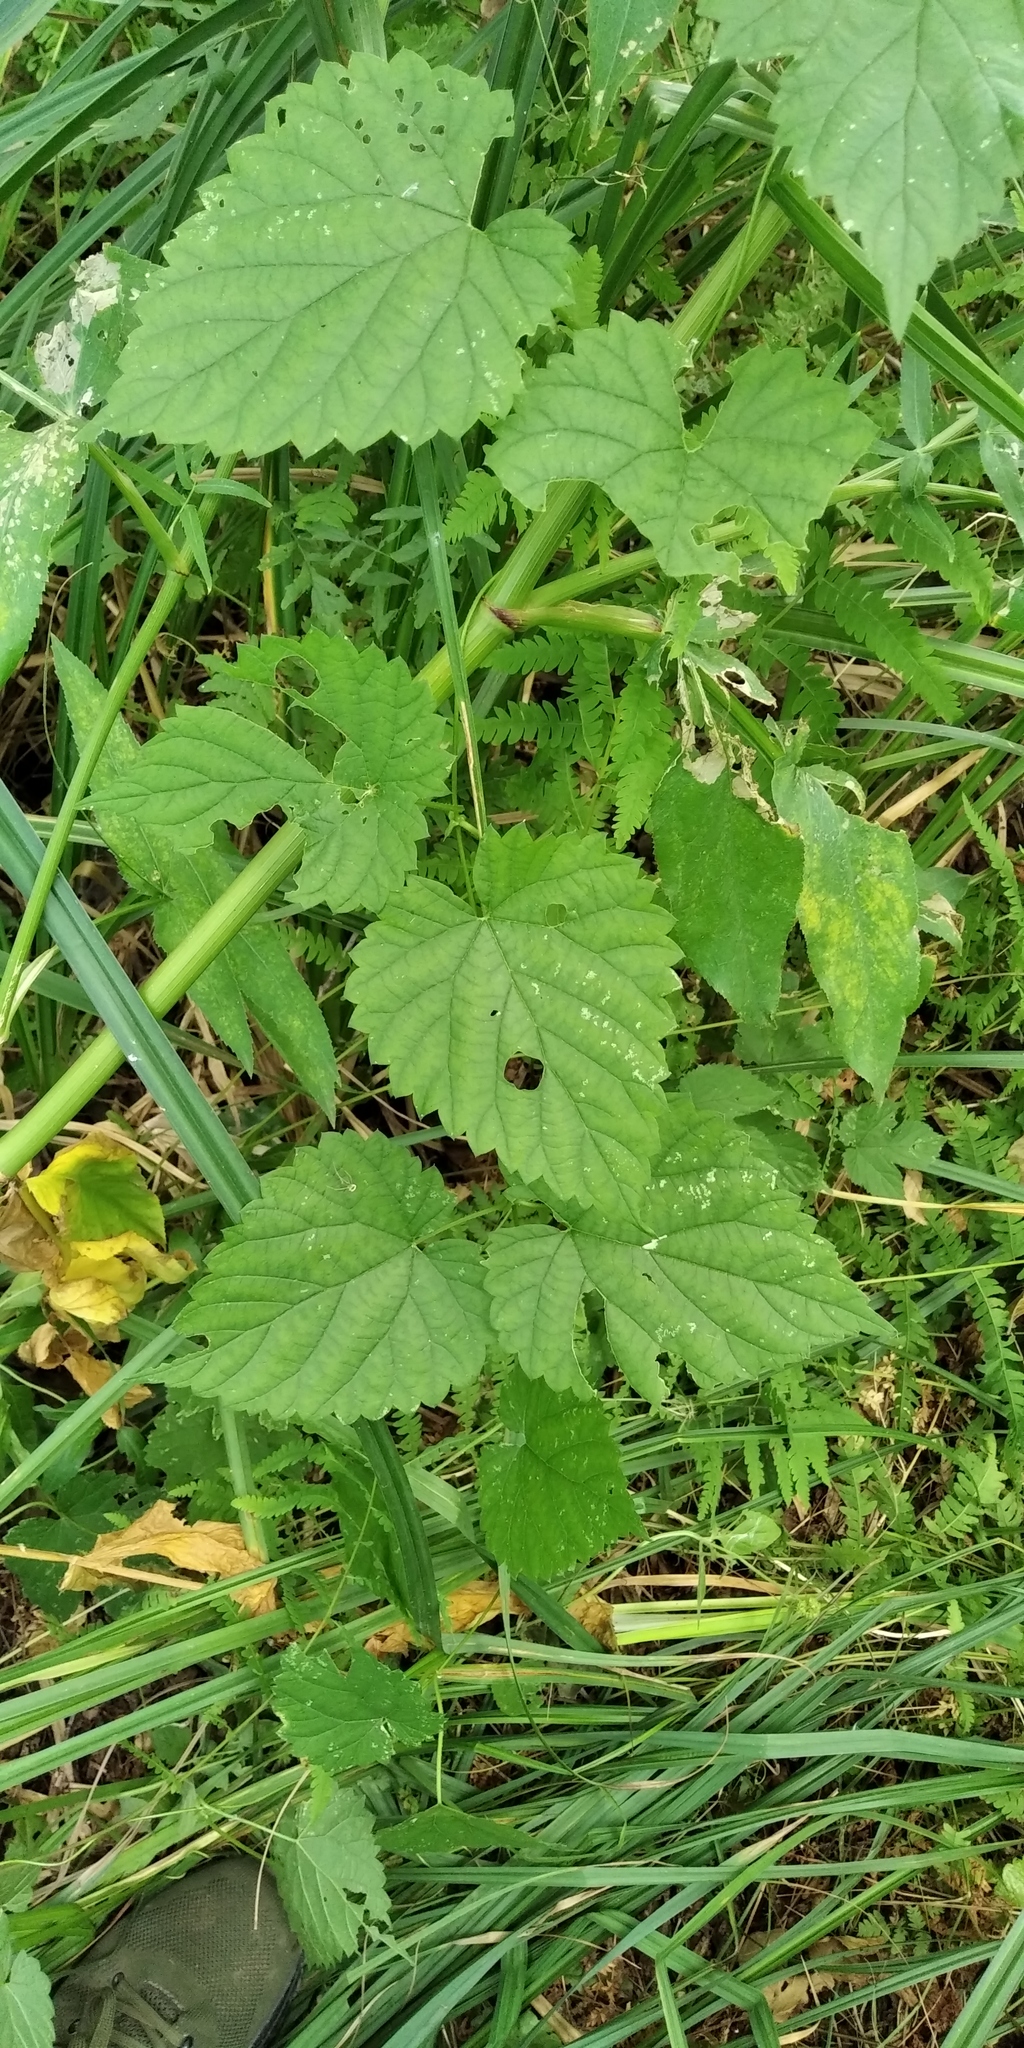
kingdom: Plantae
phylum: Tracheophyta
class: Magnoliopsida
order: Rosales
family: Cannabaceae
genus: Humulus
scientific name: Humulus lupulus
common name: Hop
